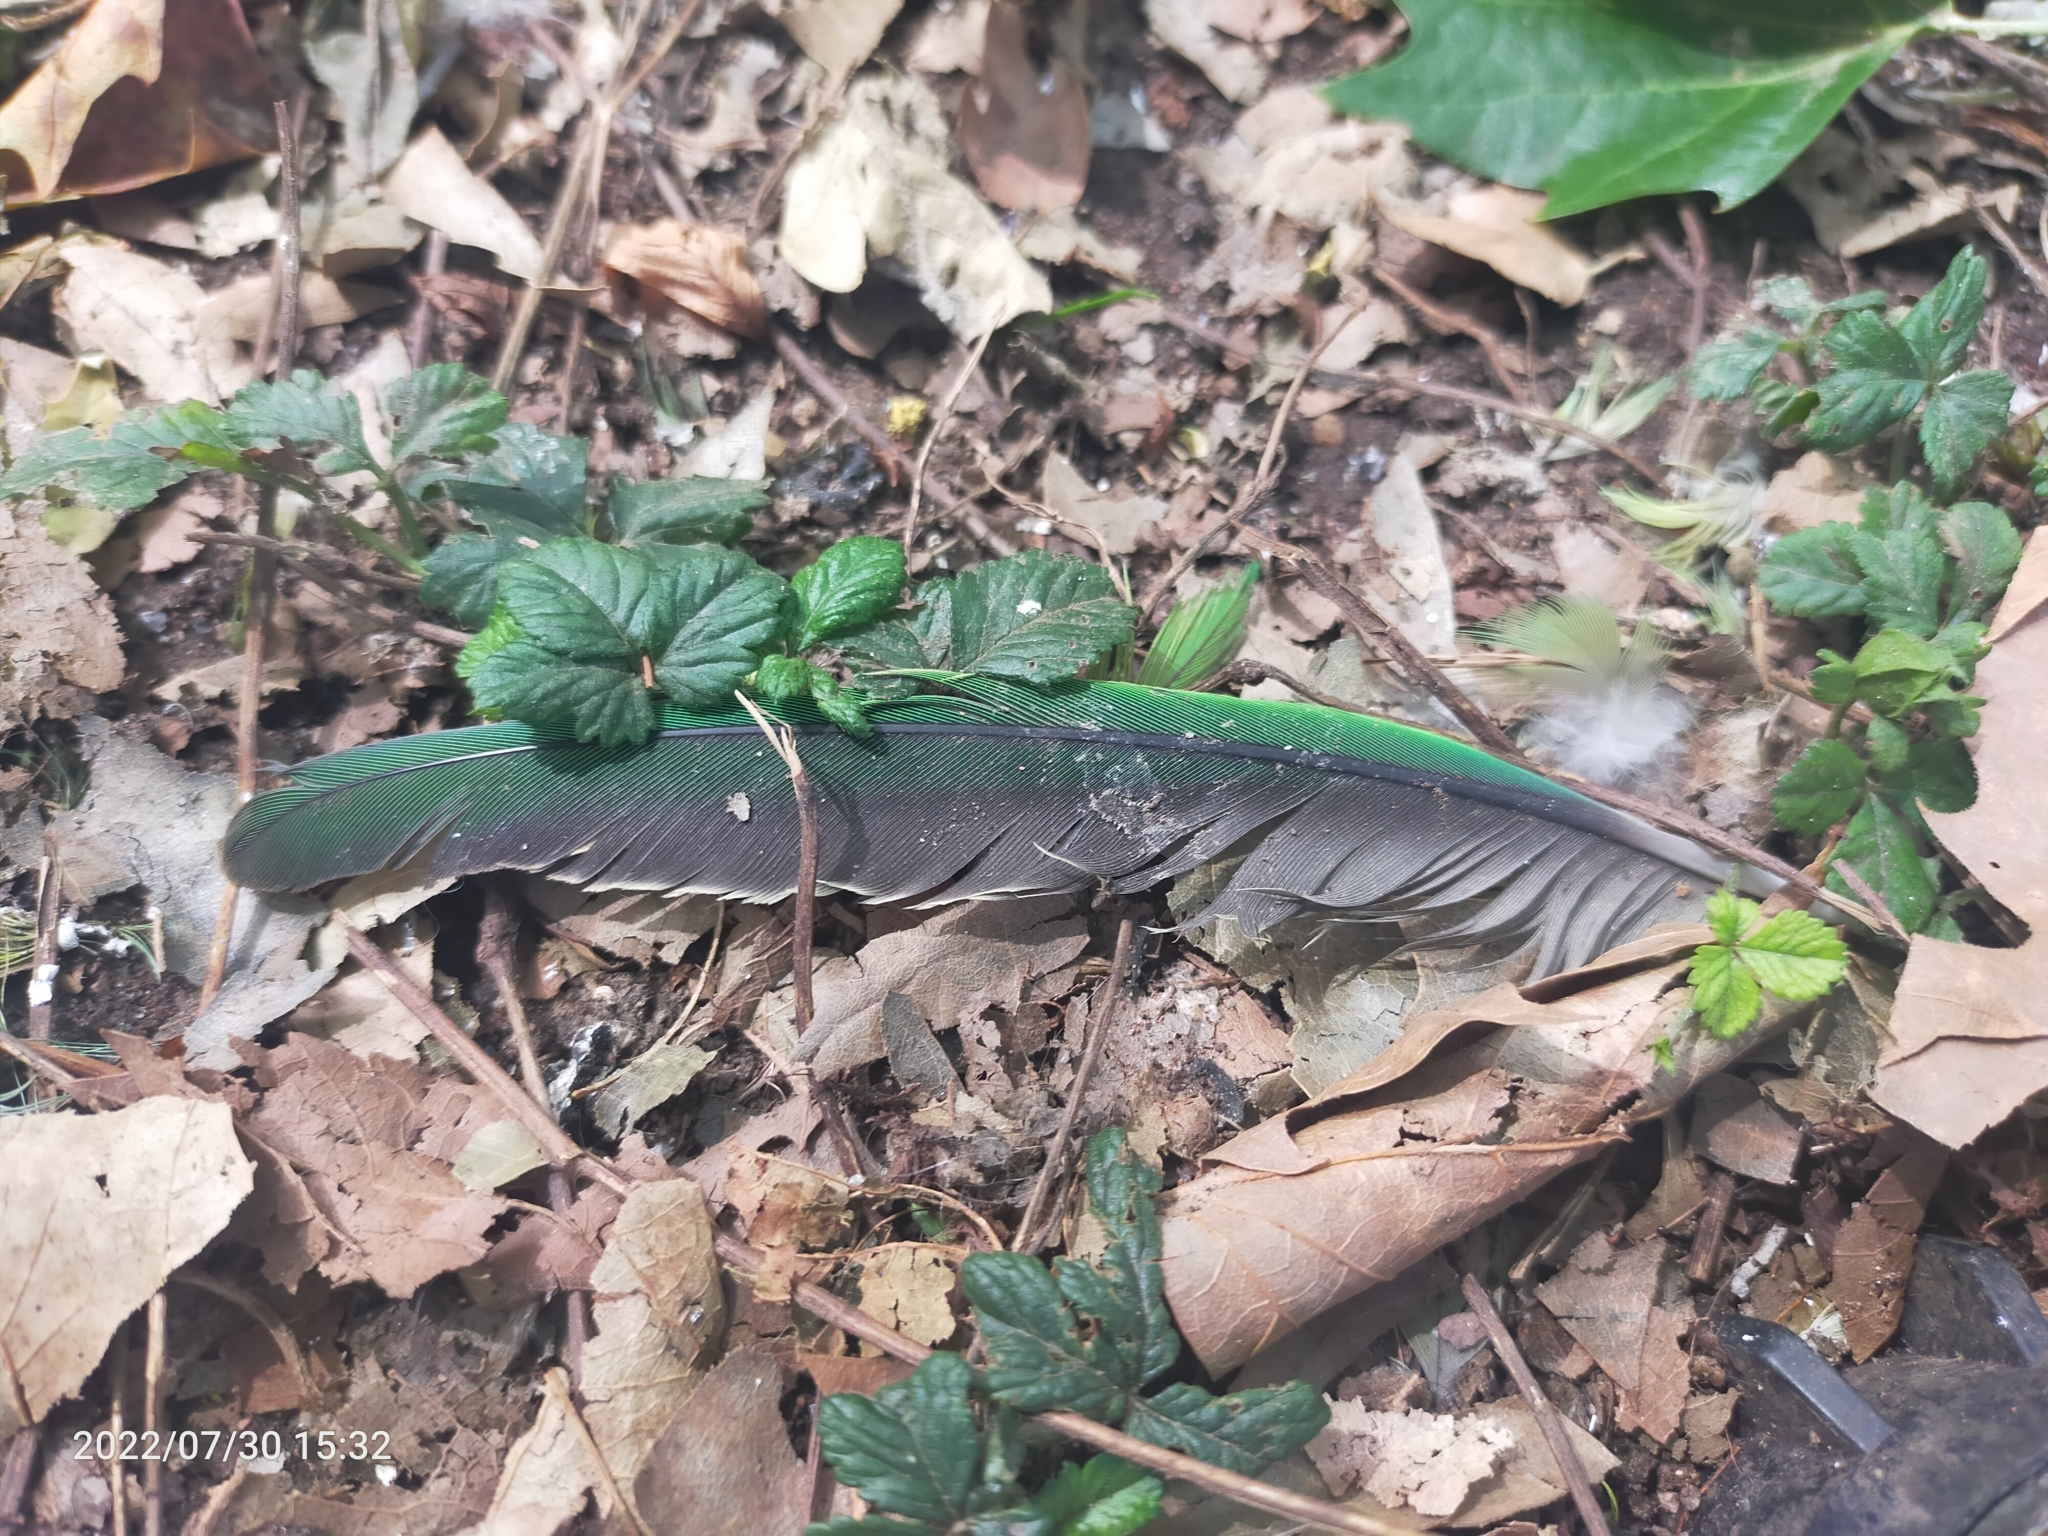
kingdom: Animalia
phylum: Chordata
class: Aves
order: Psittaciformes
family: Psittacidae
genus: Psittacula
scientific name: Psittacula krameri
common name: Rose-ringed parakeet
